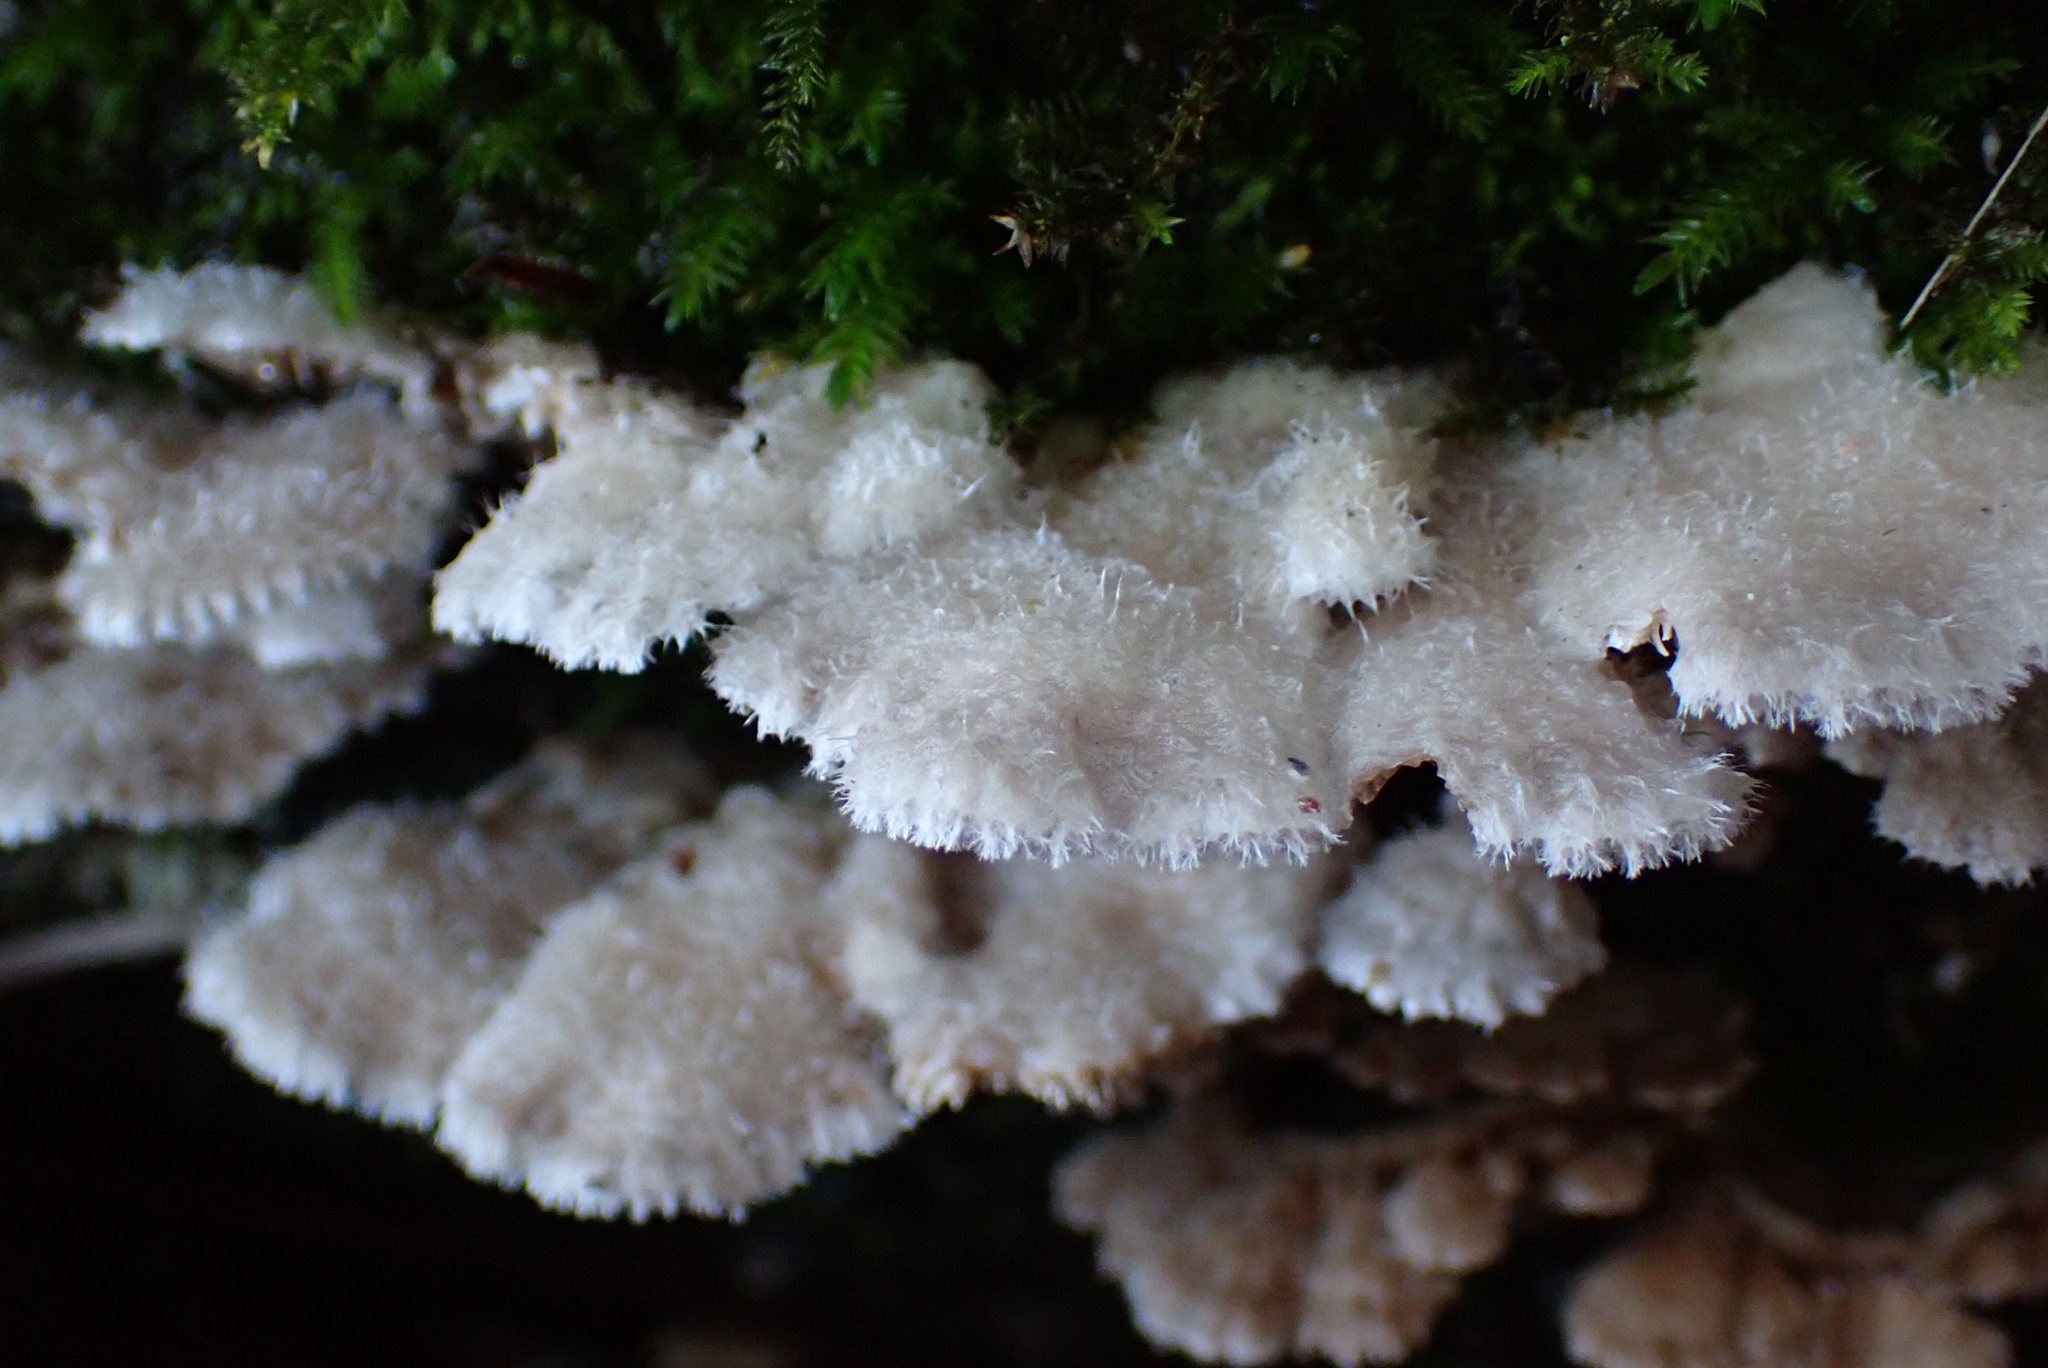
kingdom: Fungi
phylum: Basidiomycota
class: Agaricomycetes
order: Agaricales
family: Schizophyllaceae
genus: Schizophyllum
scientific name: Schizophyllum commune
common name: Common porecrust
